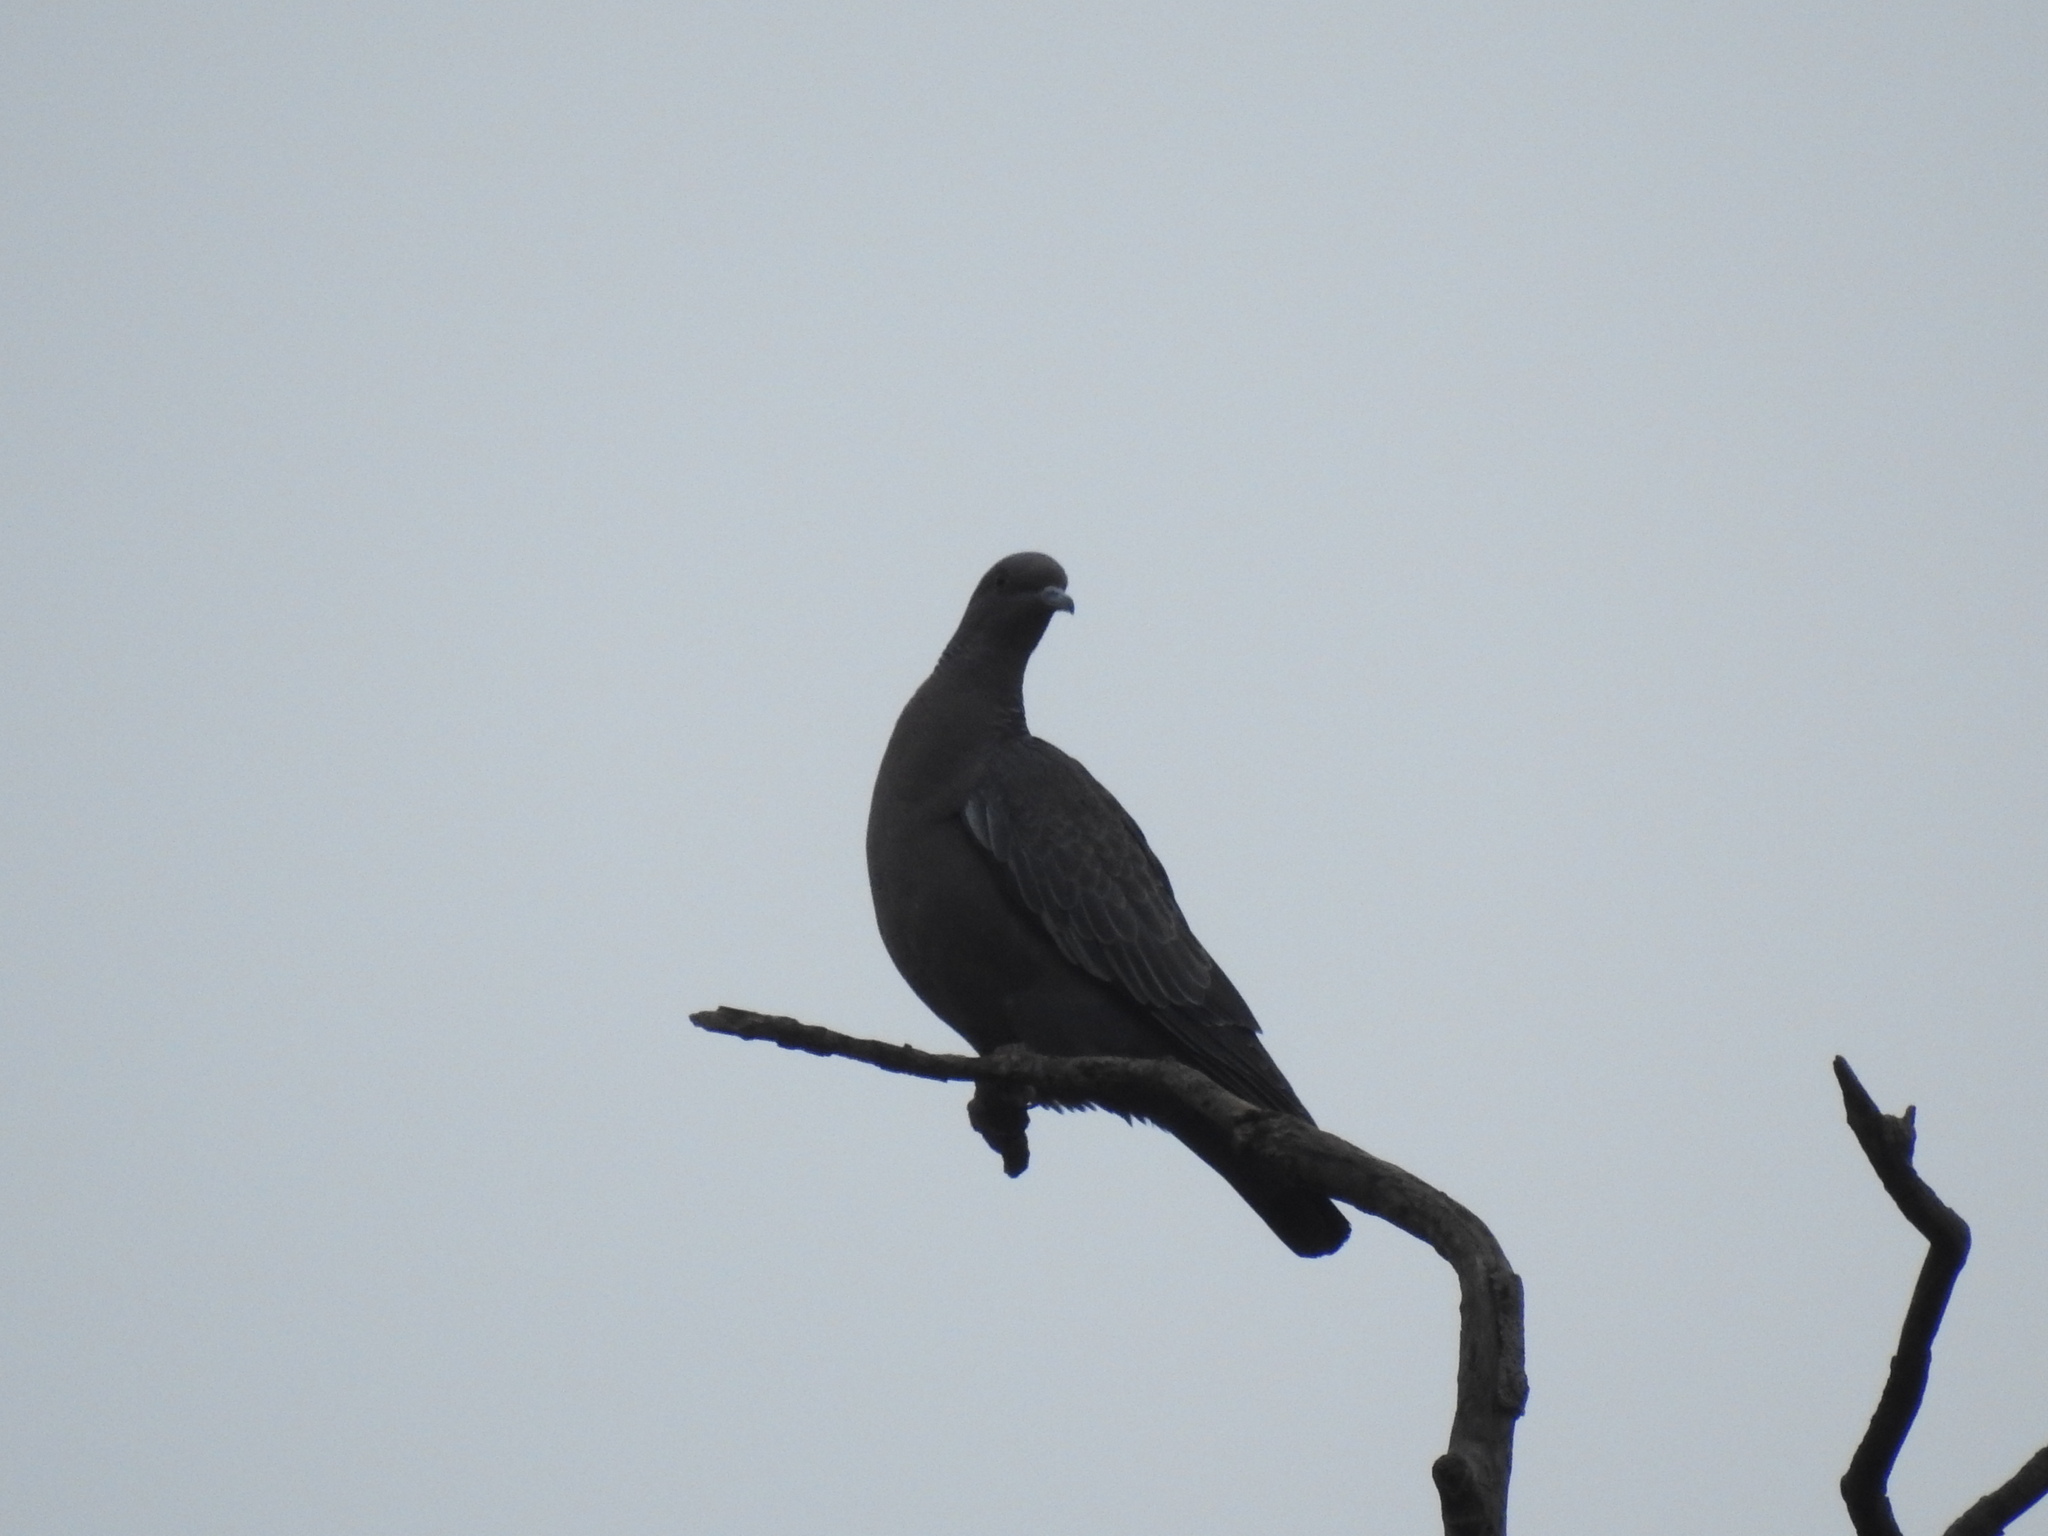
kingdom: Animalia
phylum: Chordata
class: Aves
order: Columbiformes
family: Columbidae
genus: Patagioenas
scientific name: Patagioenas picazuro
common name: Picazuro pigeon
